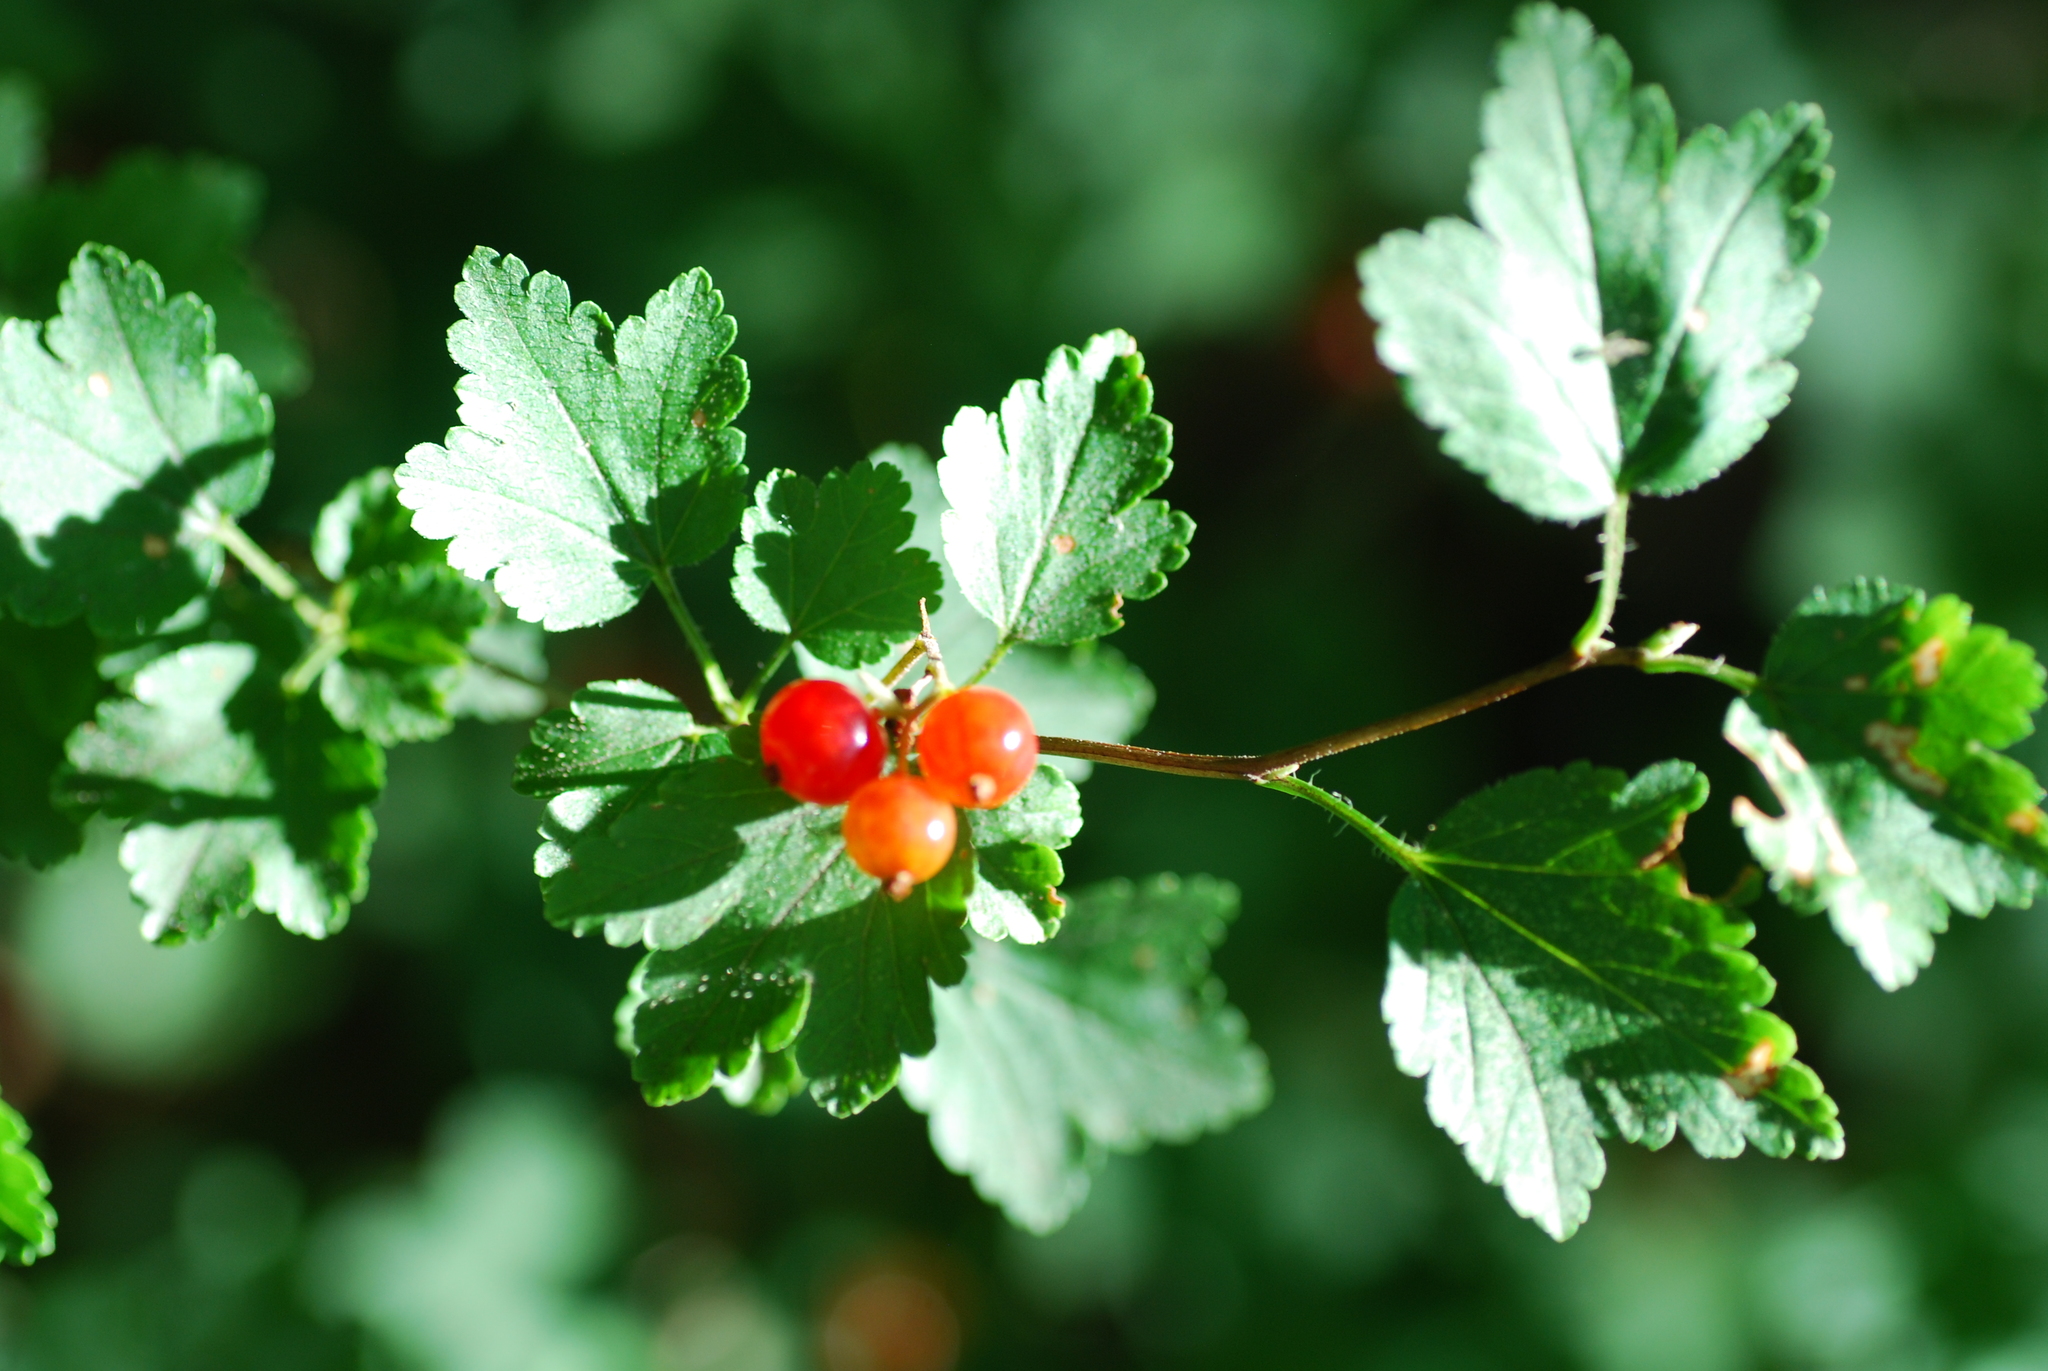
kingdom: Plantae
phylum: Tracheophyta
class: Magnoliopsida
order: Saxifragales
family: Grossulariaceae
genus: Ribes
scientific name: Ribes alpinum
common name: Alpine currant
